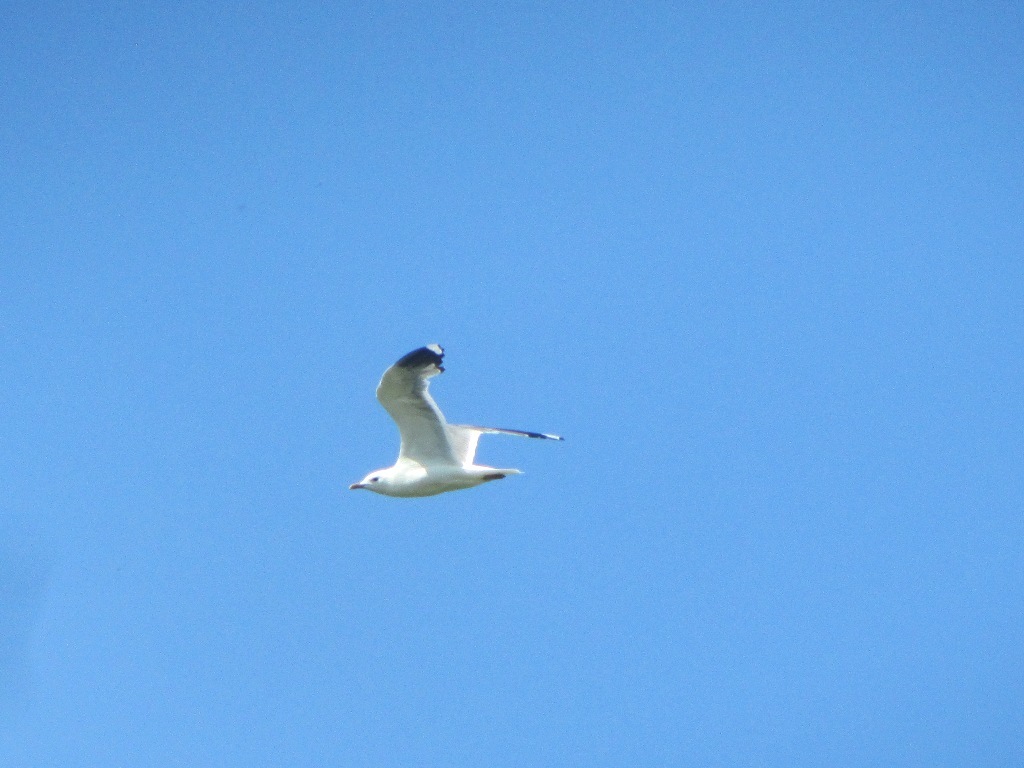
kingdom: Animalia
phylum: Chordata
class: Aves
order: Charadriiformes
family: Laridae
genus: Larus
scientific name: Larus canus
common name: Mew gull
